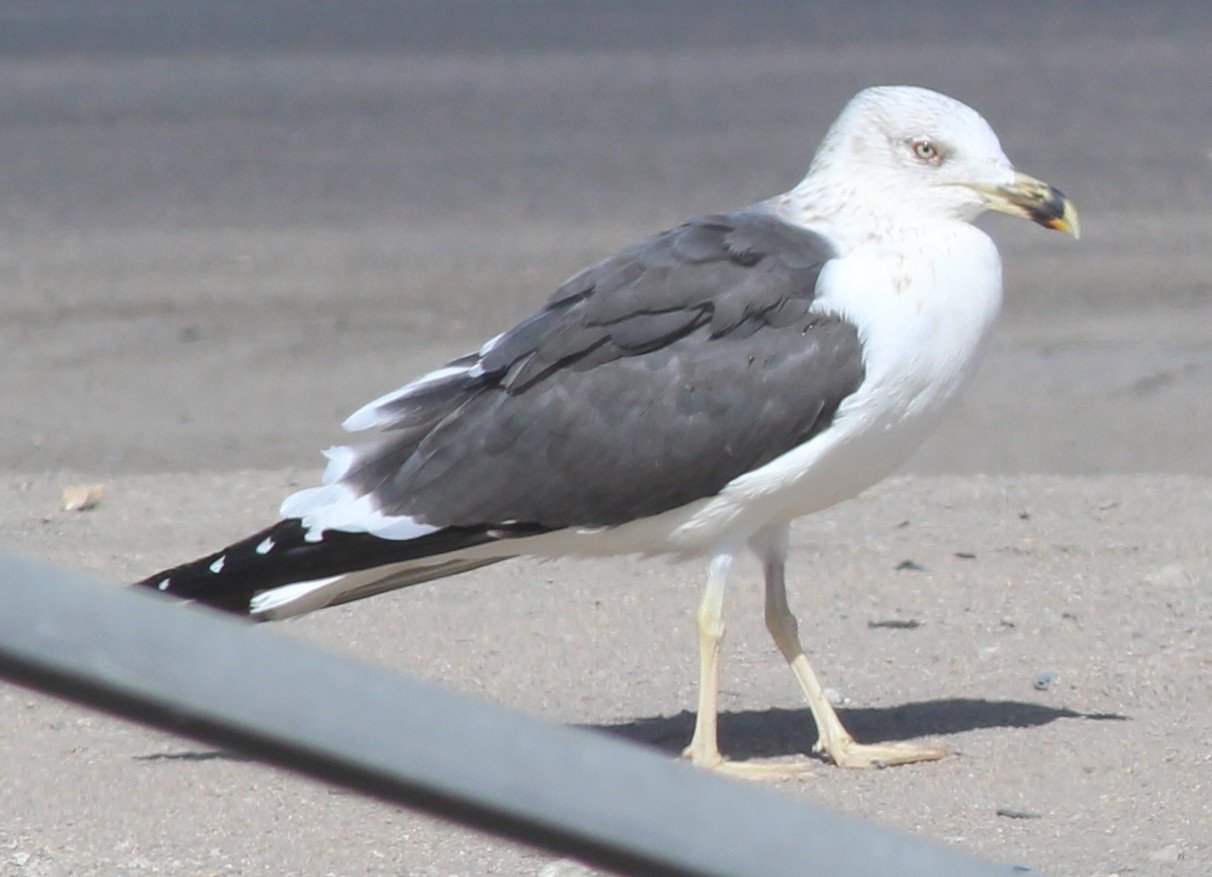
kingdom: Animalia
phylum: Chordata
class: Aves
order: Charadriiformes
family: Laridae
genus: Larus
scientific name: Larus fuscus
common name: Lesser black-backed gull
